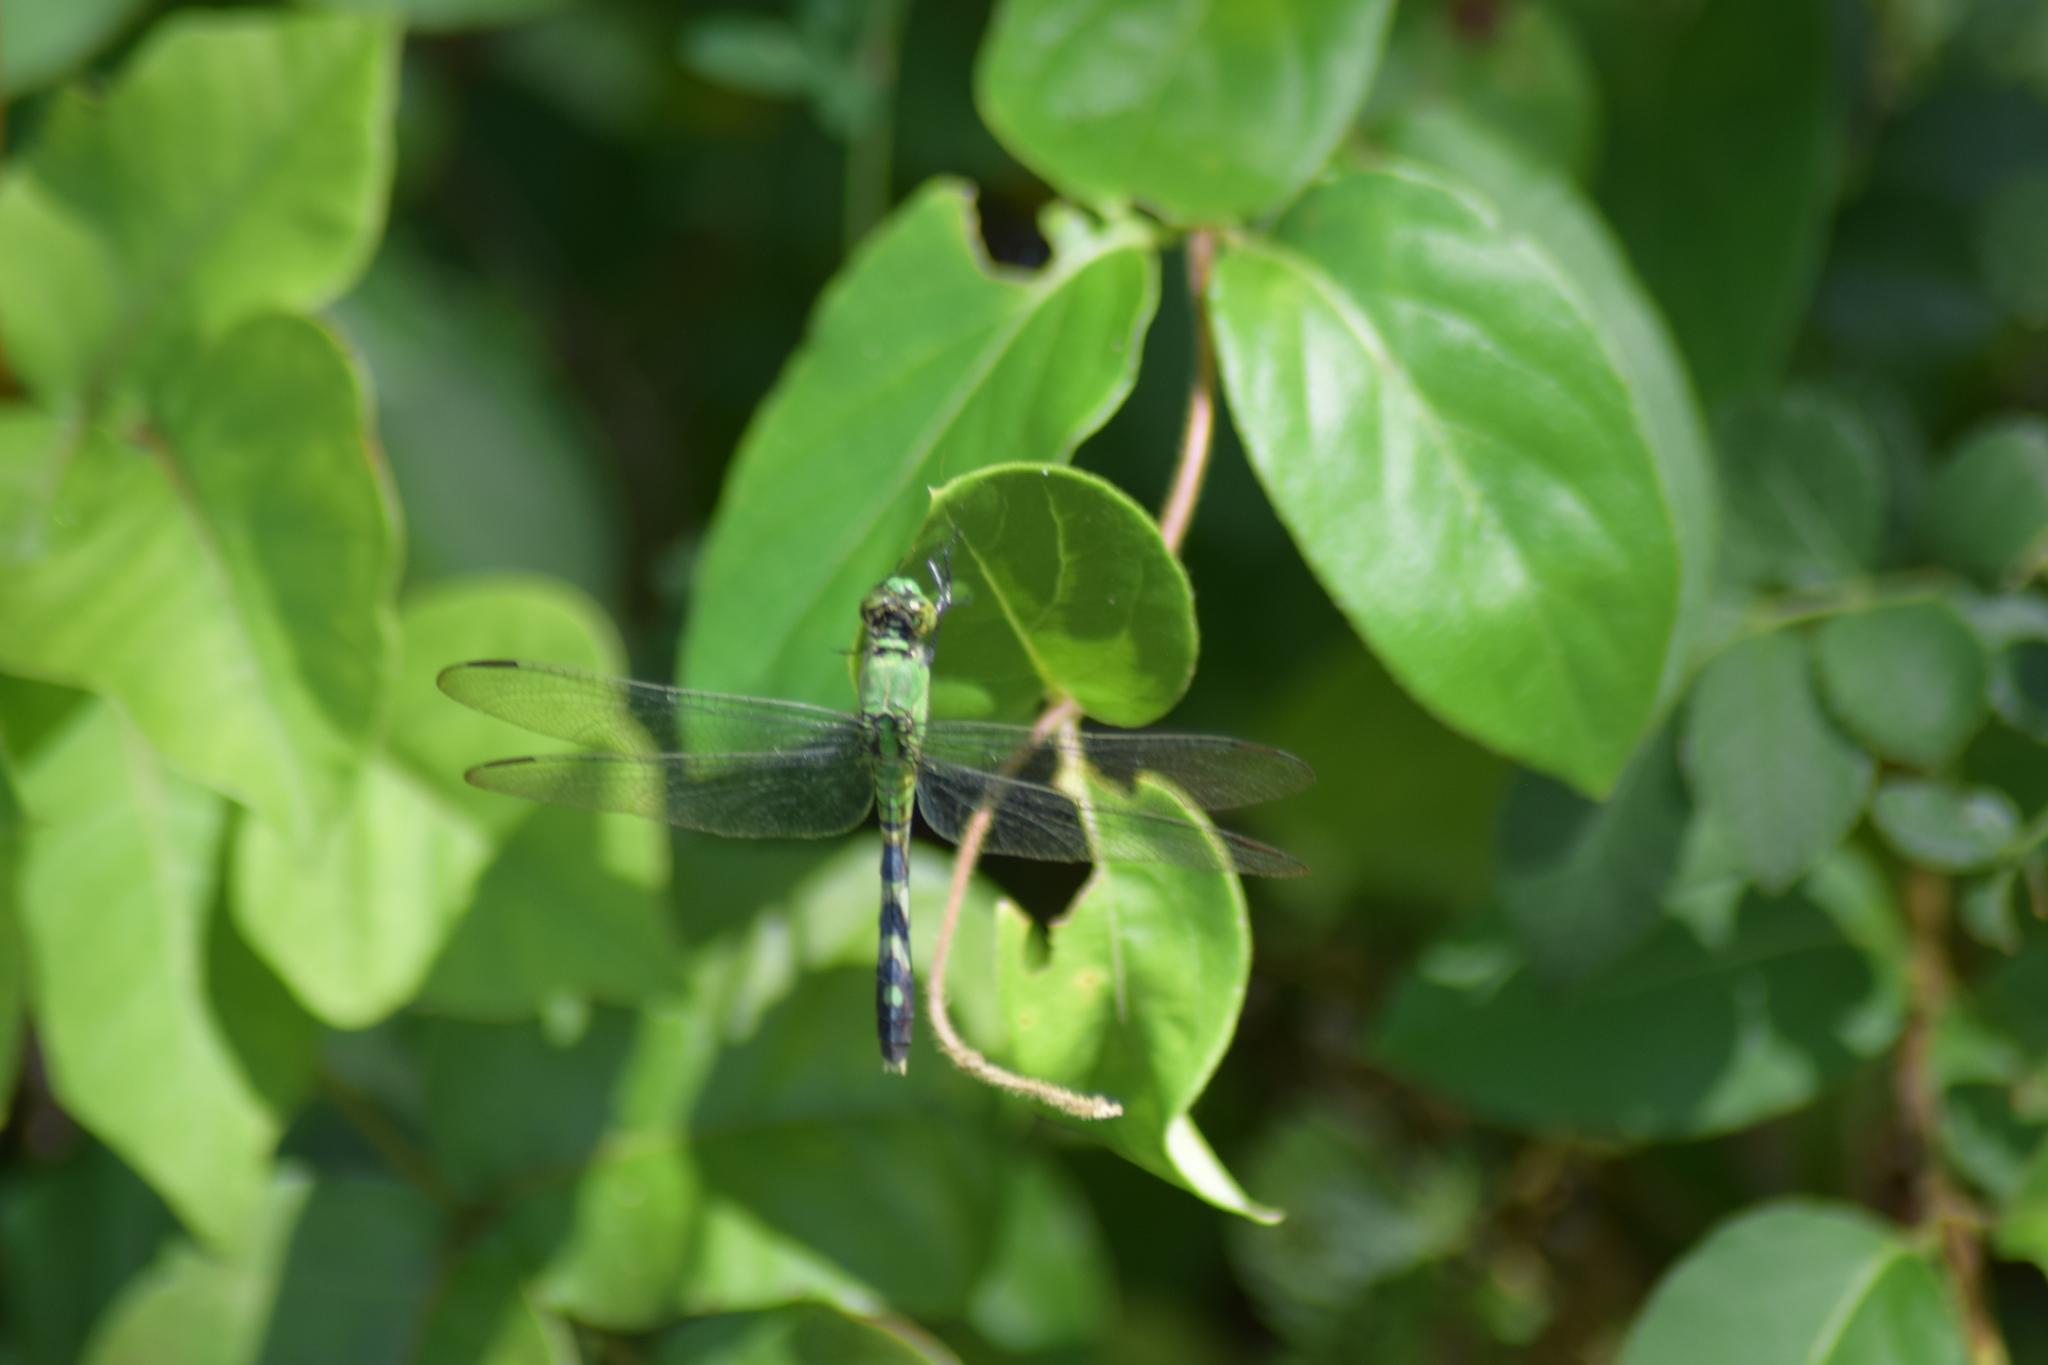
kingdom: Animalia
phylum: Arthropoda
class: Insecta
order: Odonata
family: Libellulidae
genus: Erythemis
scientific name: Erythemis simplicicollis
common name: Eastern pondhawk
